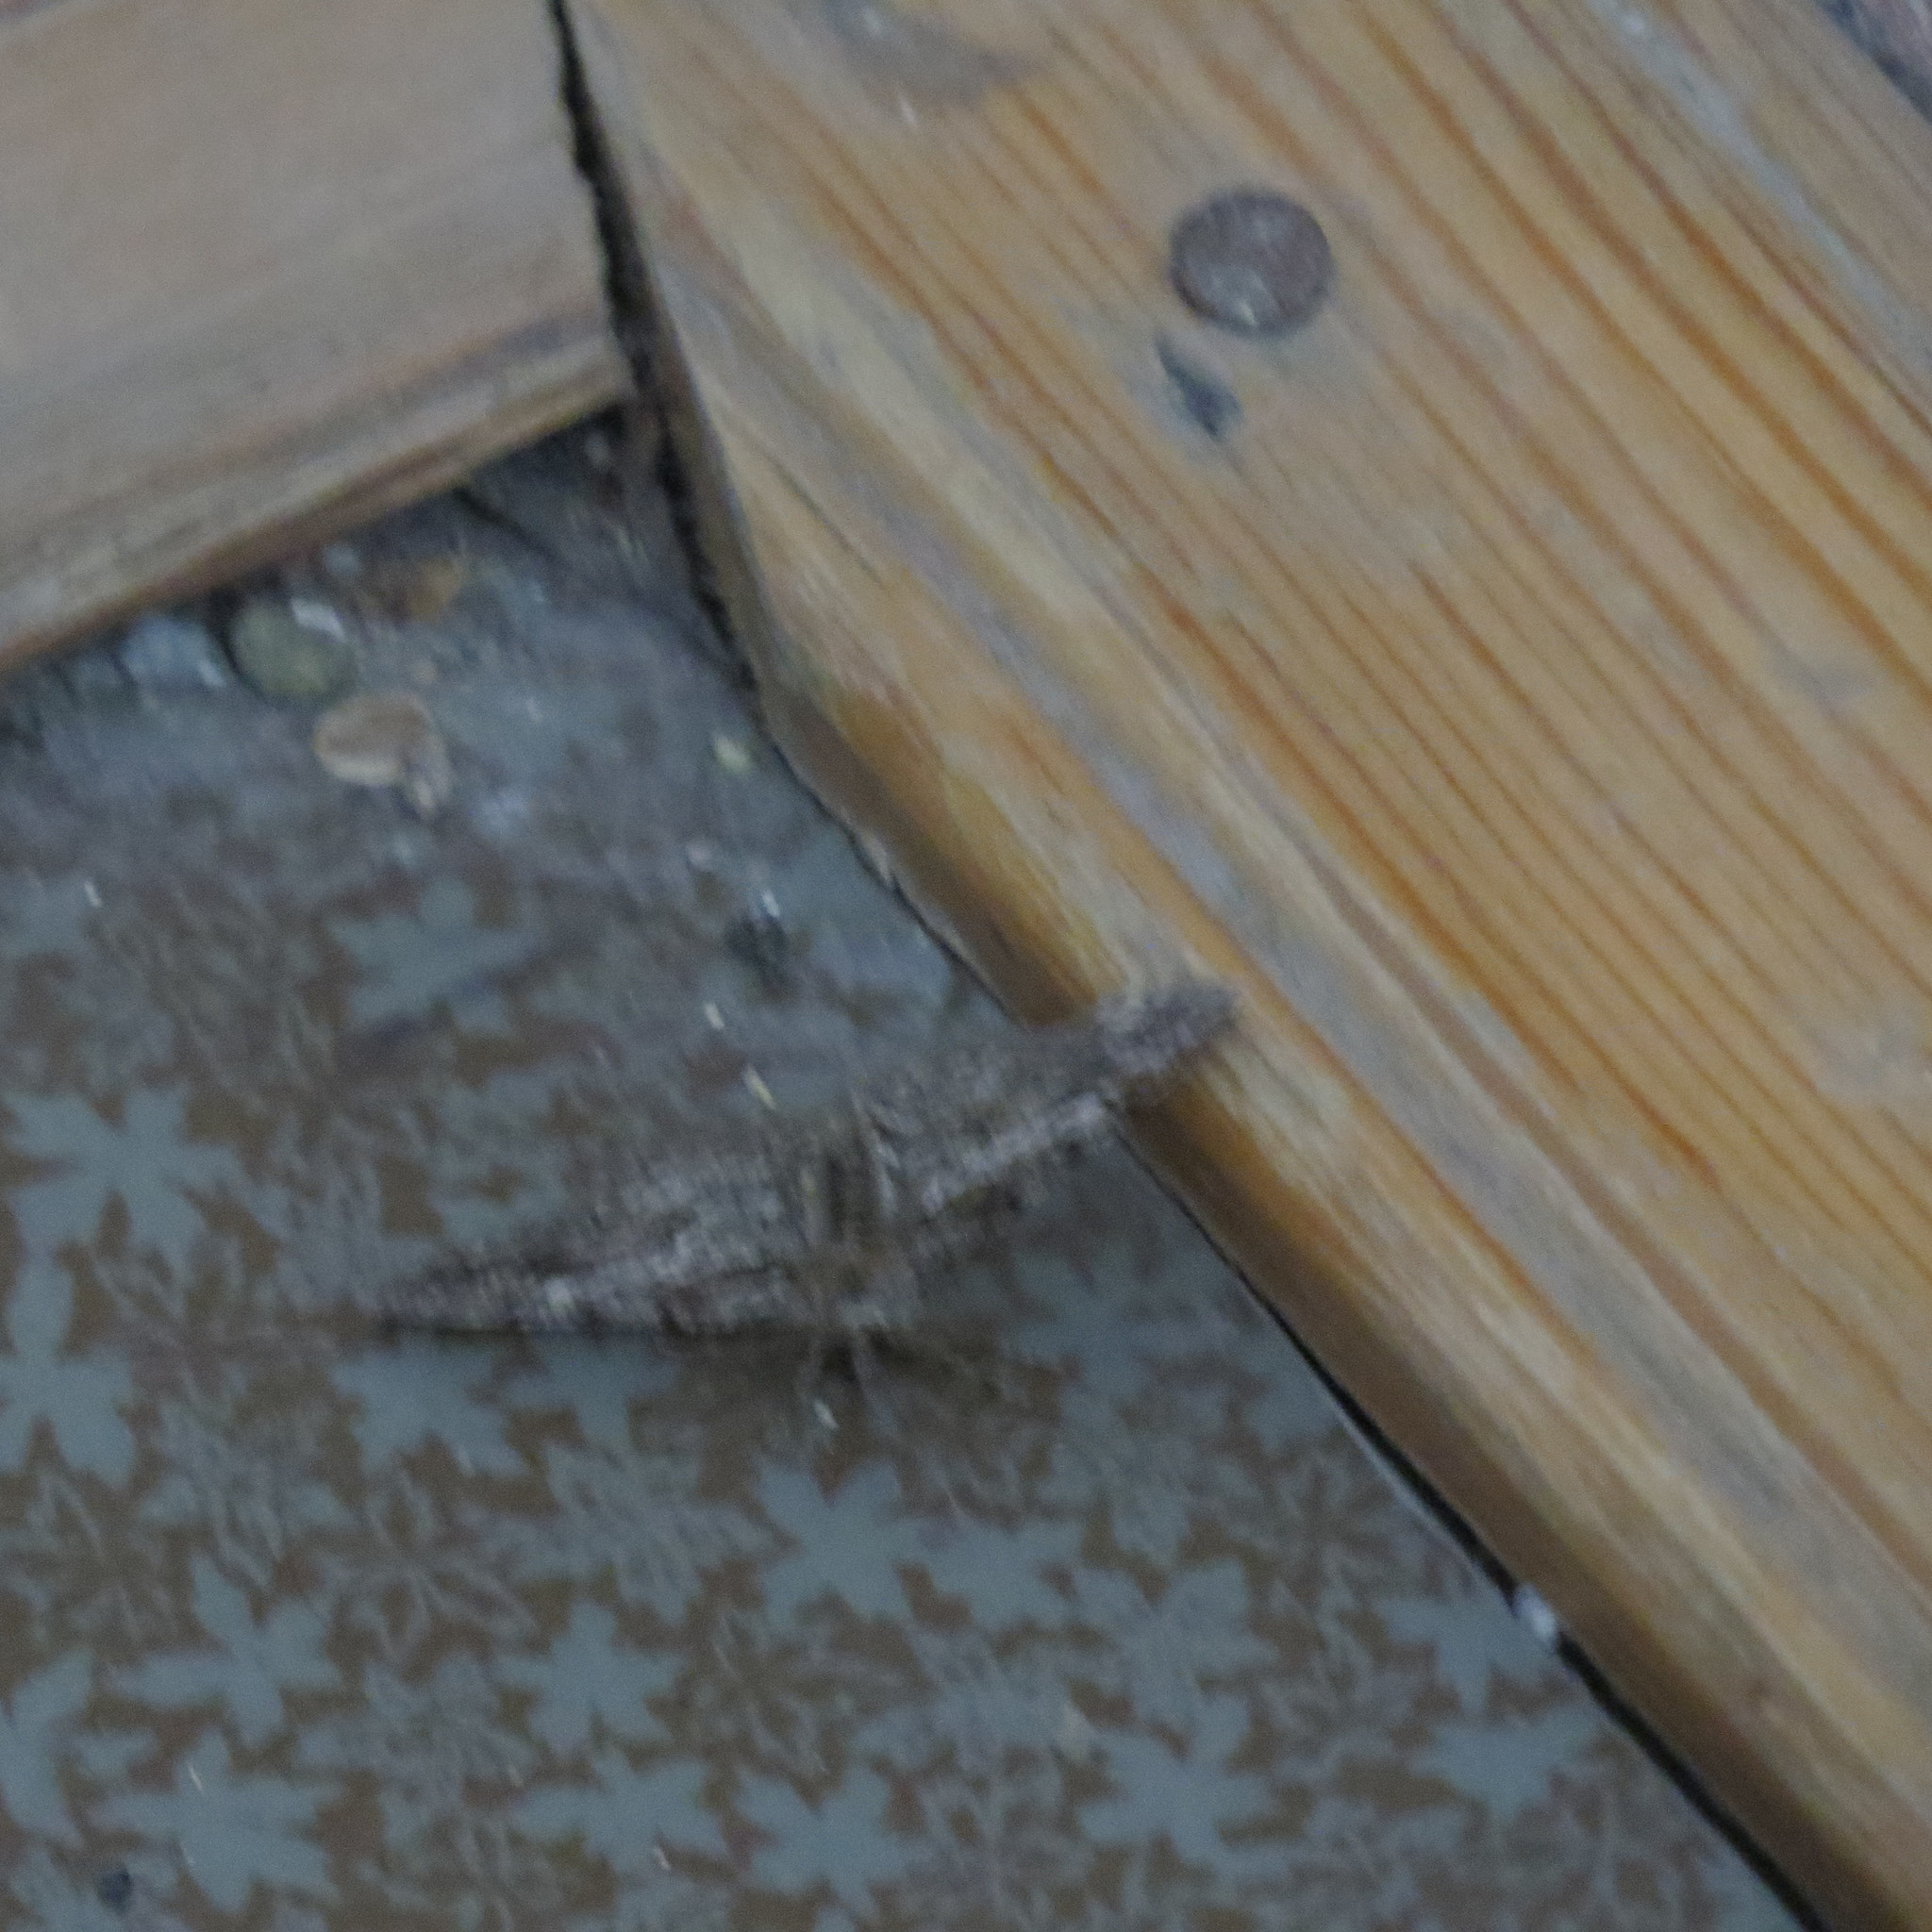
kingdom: Animalia
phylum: Arthropoda
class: Insecta
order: Lepidoptera
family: Geometridae
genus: Cleora
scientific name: Cleora cinctaria
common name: Ringed carpet
